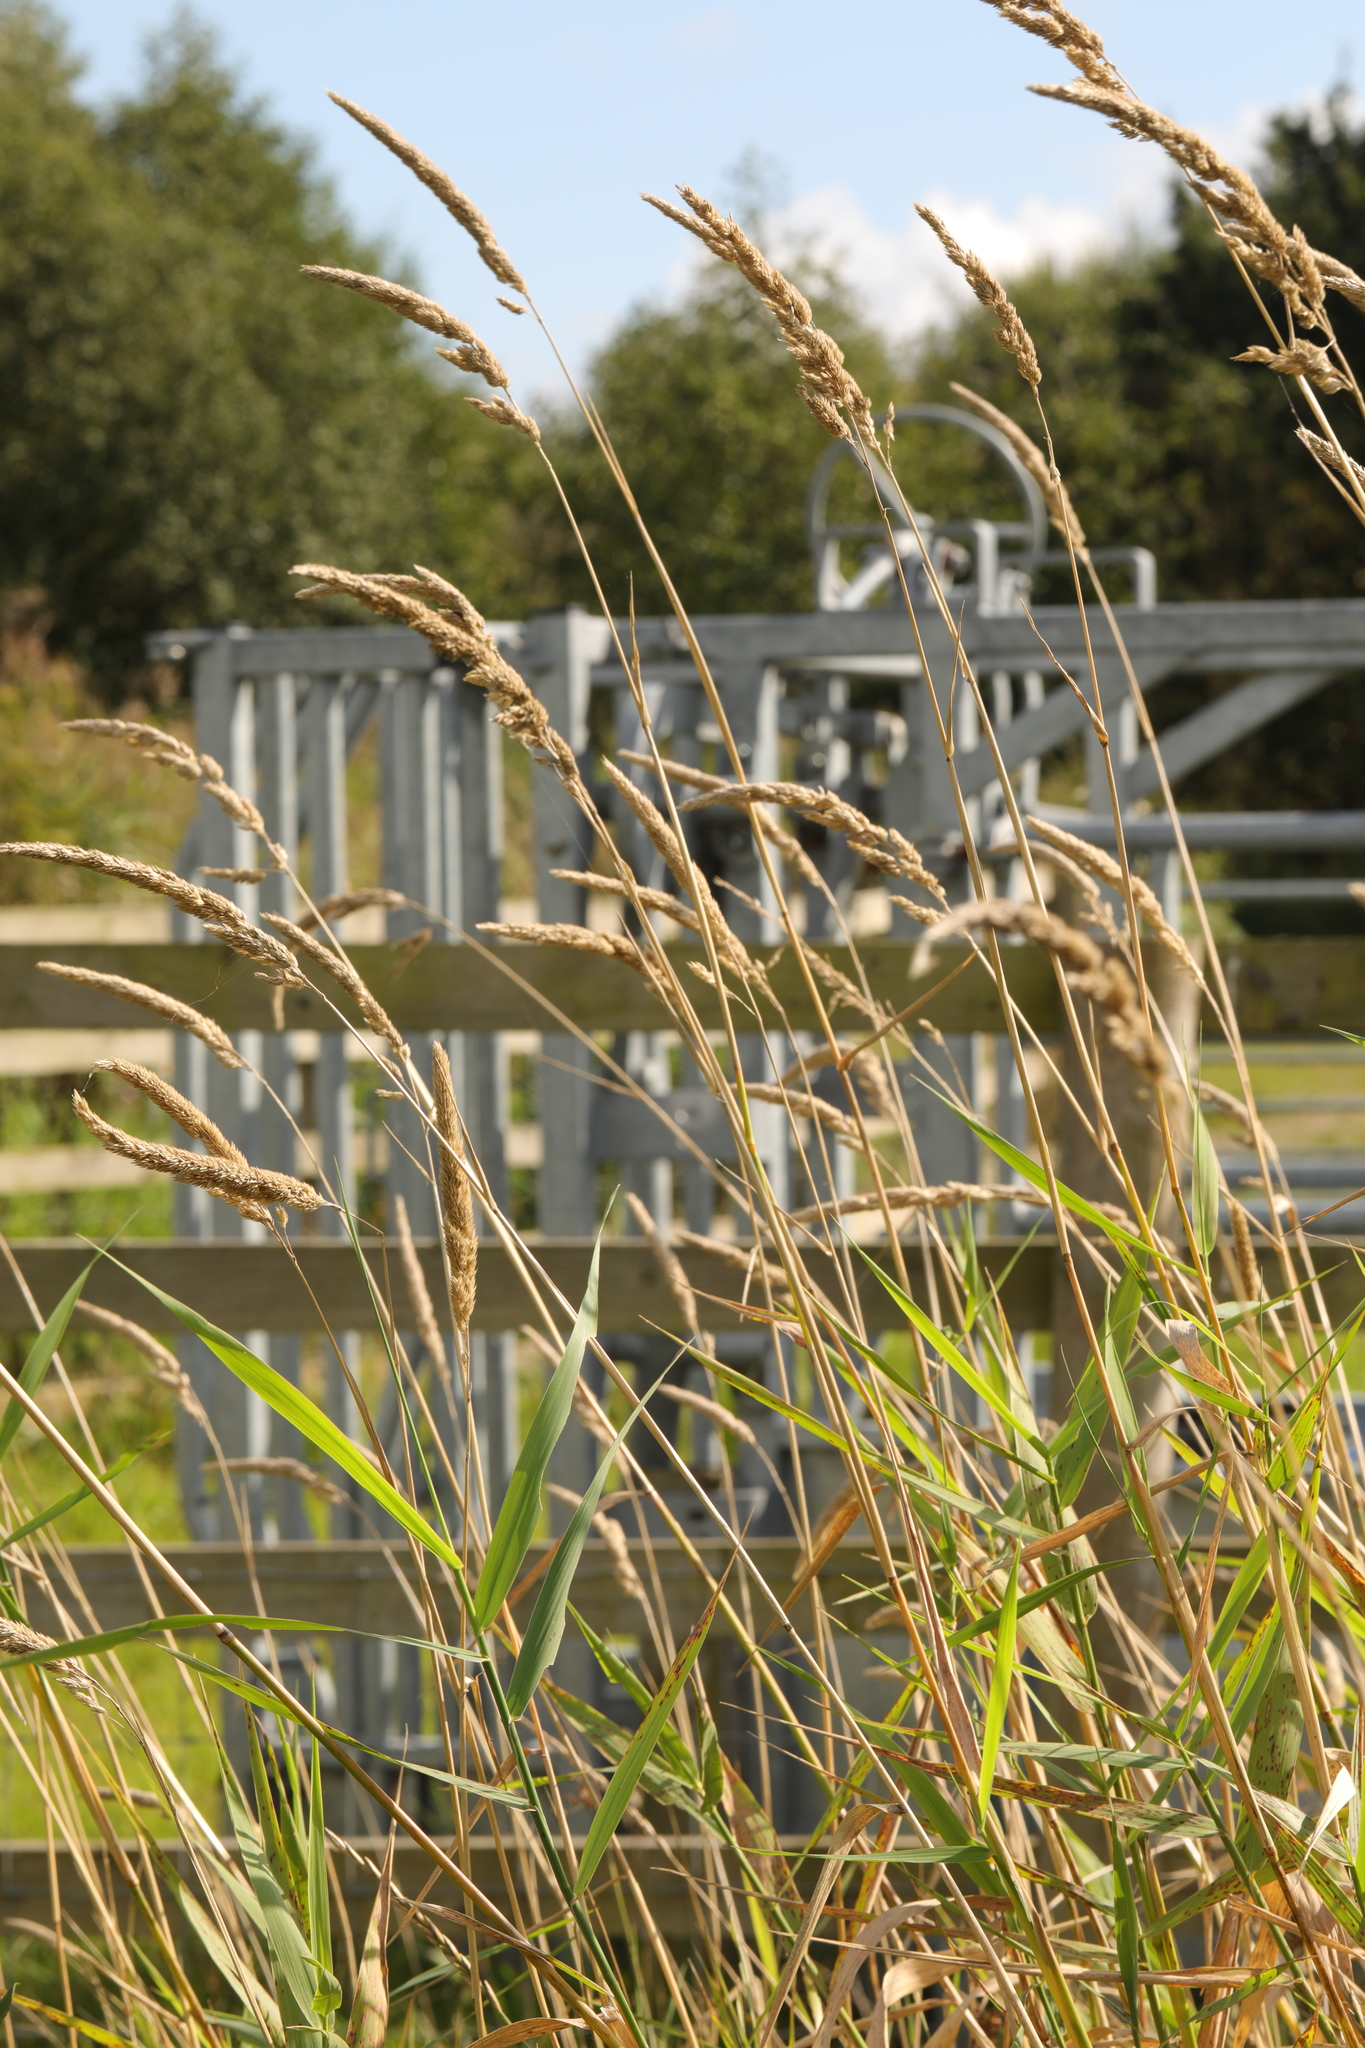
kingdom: Plantae
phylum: Tracheophyta
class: Liliopsida
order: Poales
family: Poaceae
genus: Phalaris
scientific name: Phalaris arundinacea
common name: Reed canary-grass
